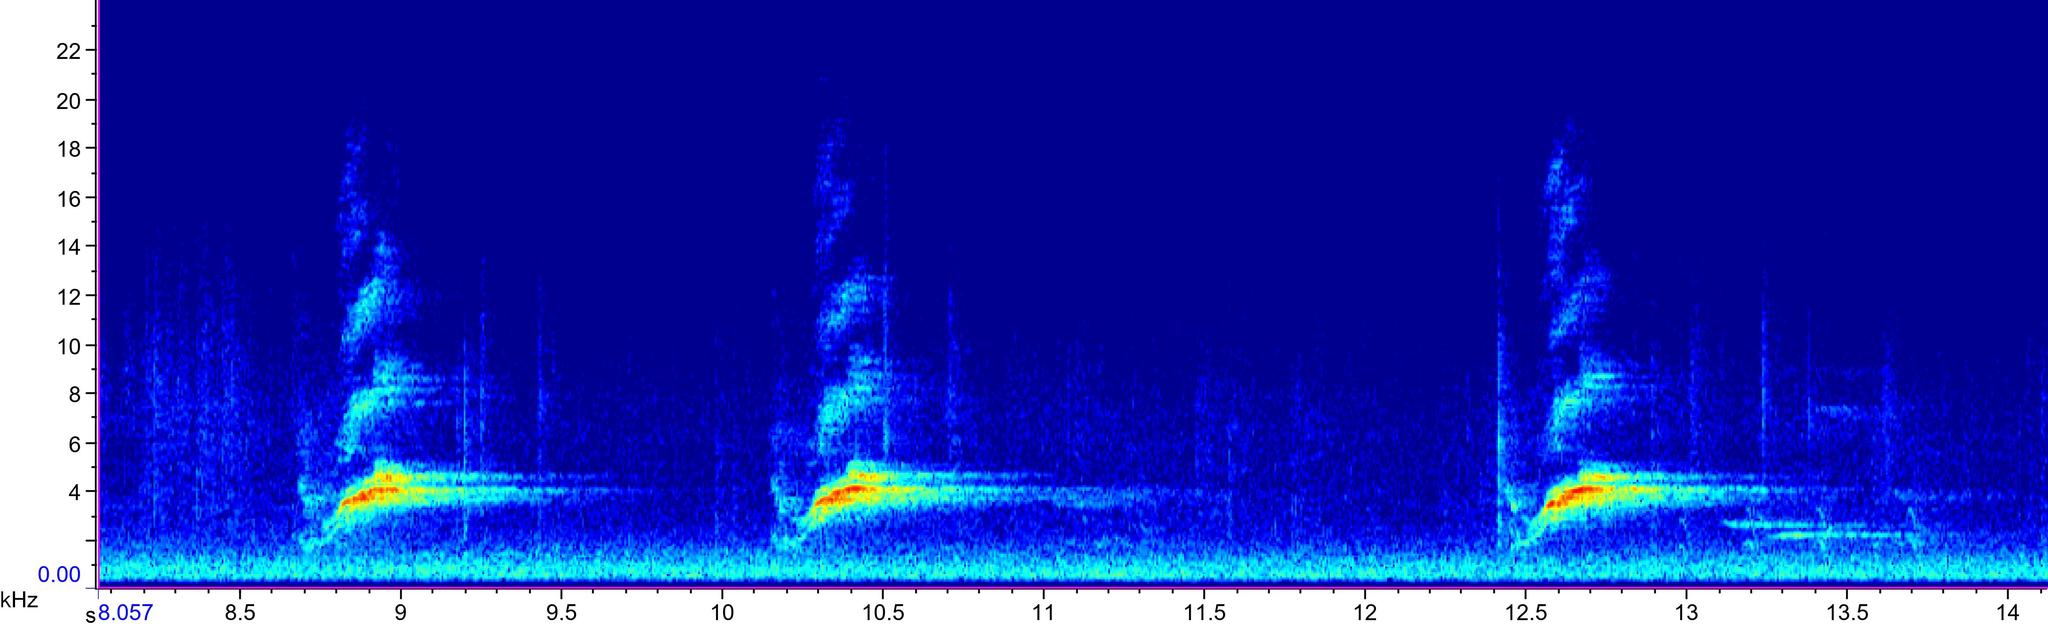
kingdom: Animalia
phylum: Chordata
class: Aves
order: Passeriformes
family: Passerellidae
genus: Pipilo
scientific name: Pipilo erythrophthalmus
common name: Eastern towhee
